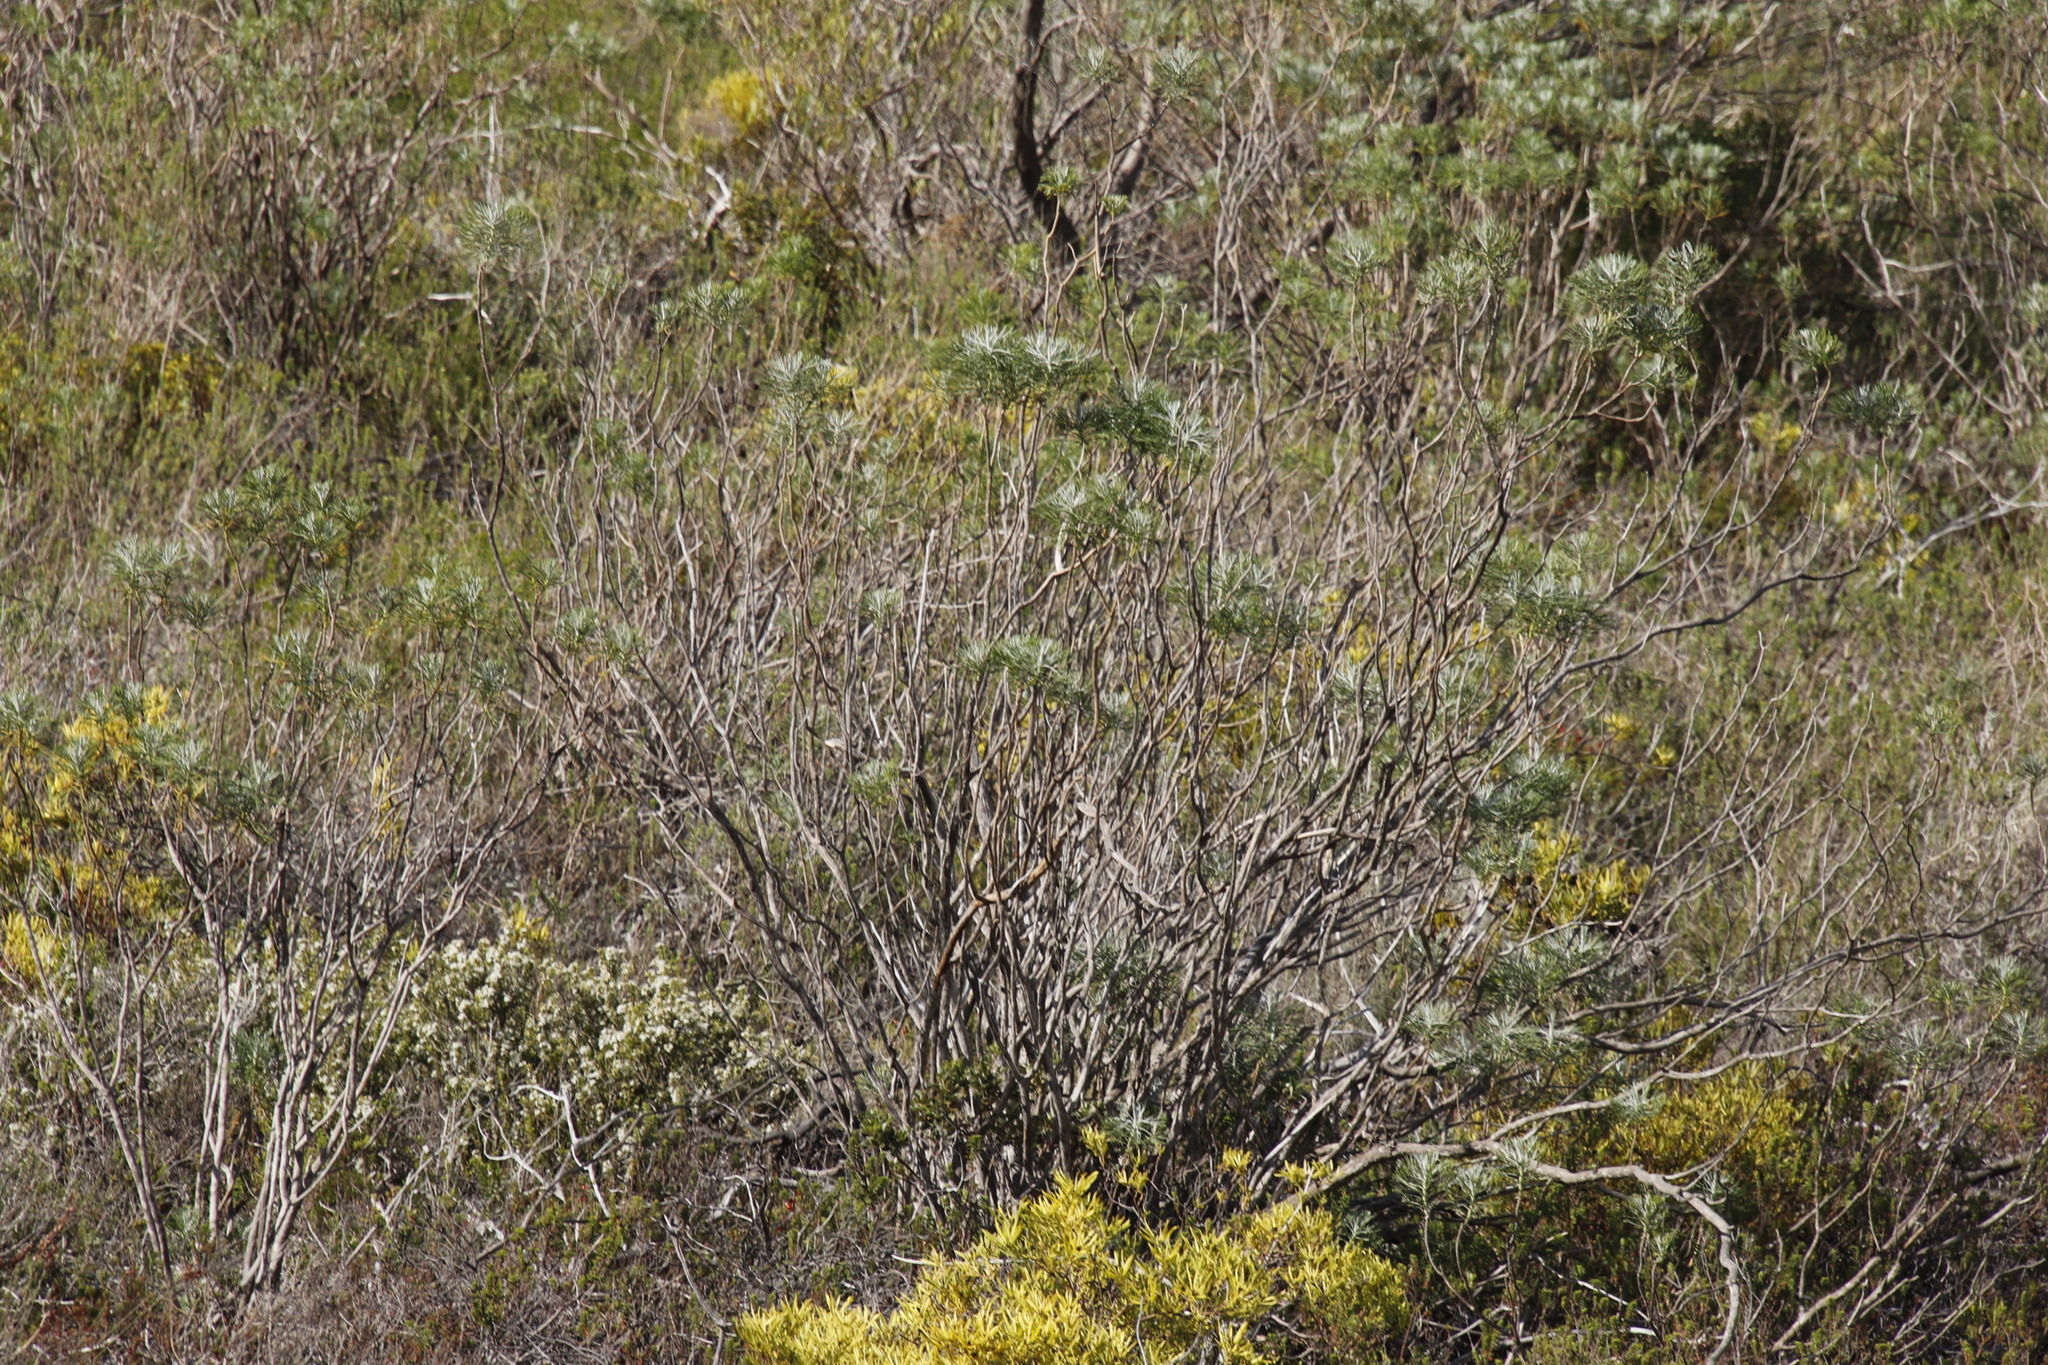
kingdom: Plantae
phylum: Tracheophyta
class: Magnoliopsida
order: Asterales
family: Asteraceae
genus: Hymenolepis
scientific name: Hymenolepis crithmifolia
